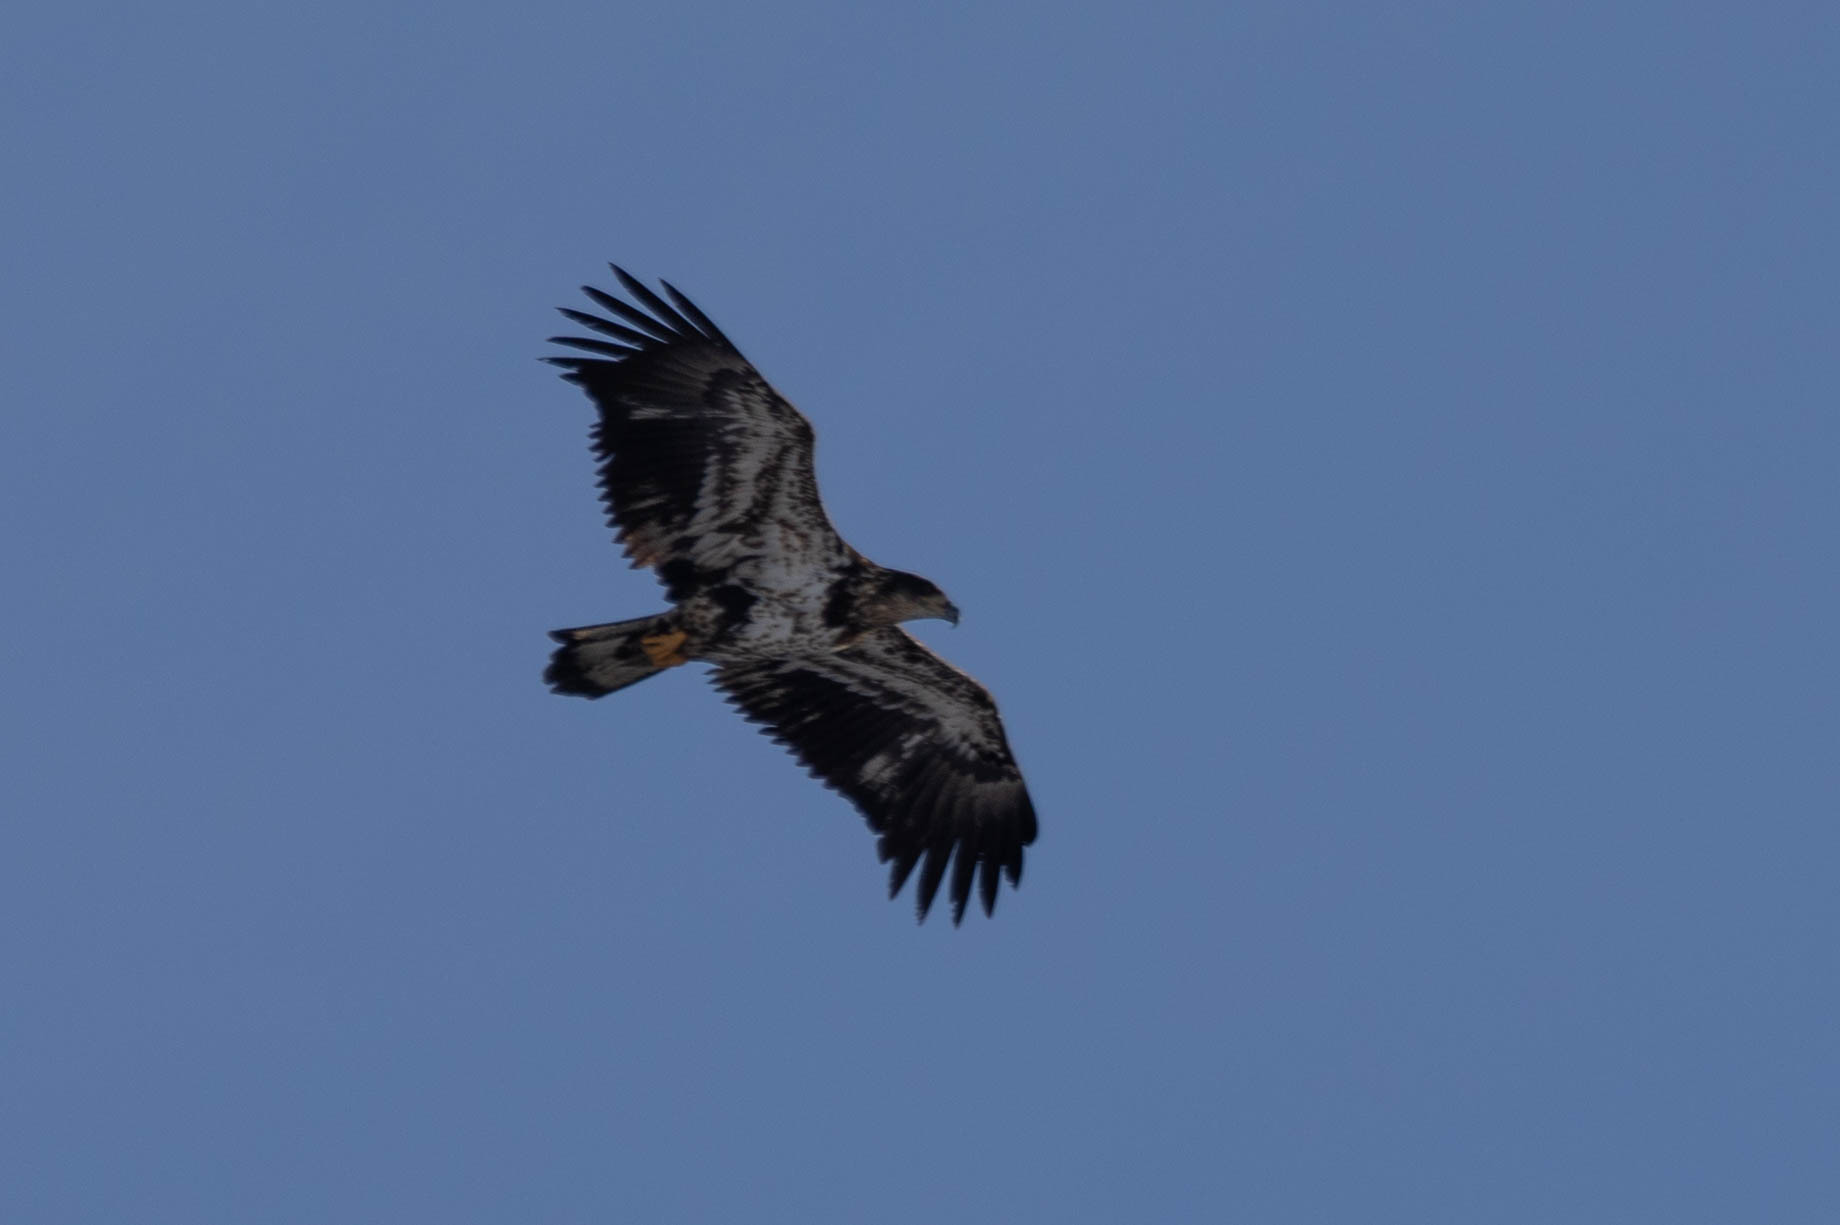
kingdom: Animalia
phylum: Chordata
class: Aves
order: Accipitriformes
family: Accipitridae
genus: Haliaeetus
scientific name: Haliaeetus leucocephalus
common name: Bald eagle
